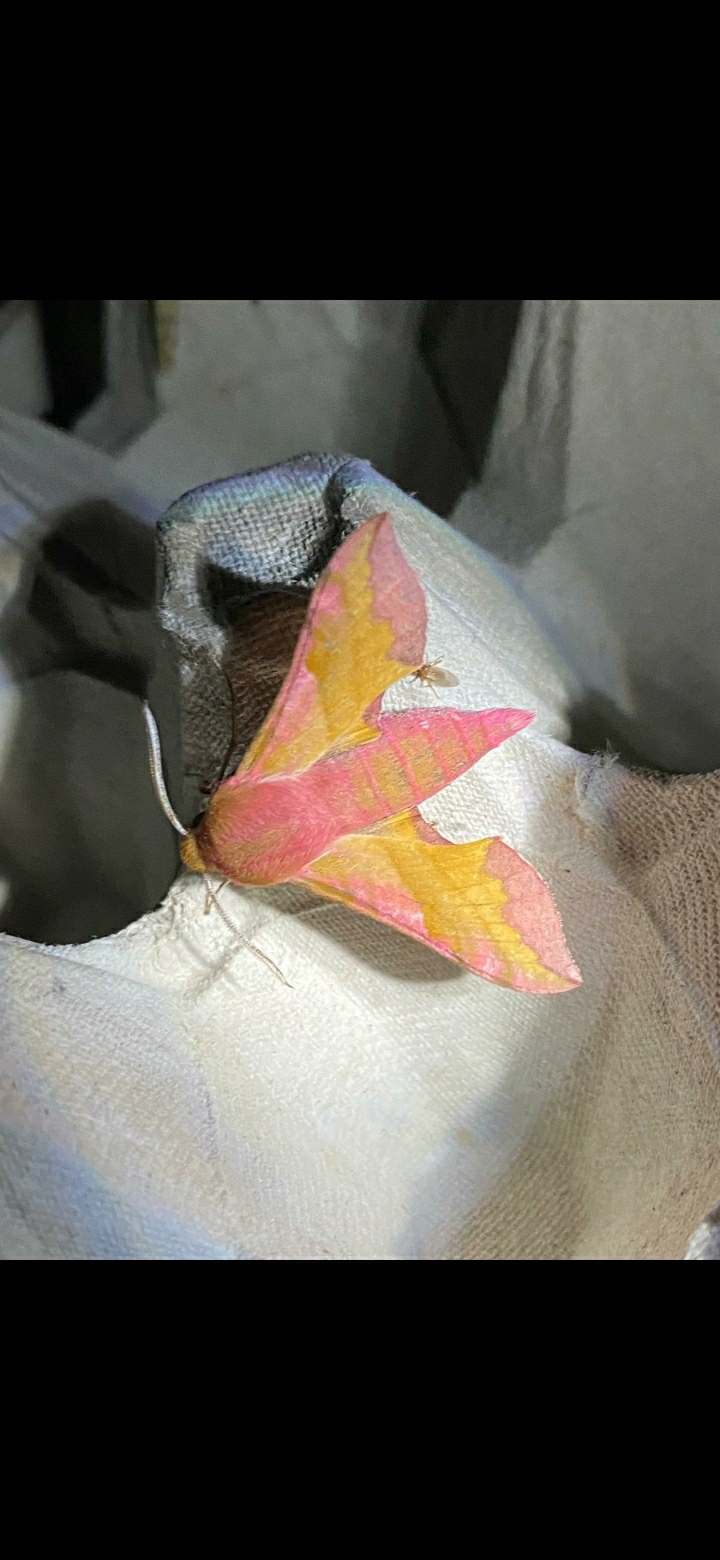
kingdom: Animalia
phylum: Arthropoda
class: Insecta
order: Lepidoptera
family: Sphingidae
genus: Deilephila
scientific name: Deilephila porcellus
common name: Small elephant hawk-moth
